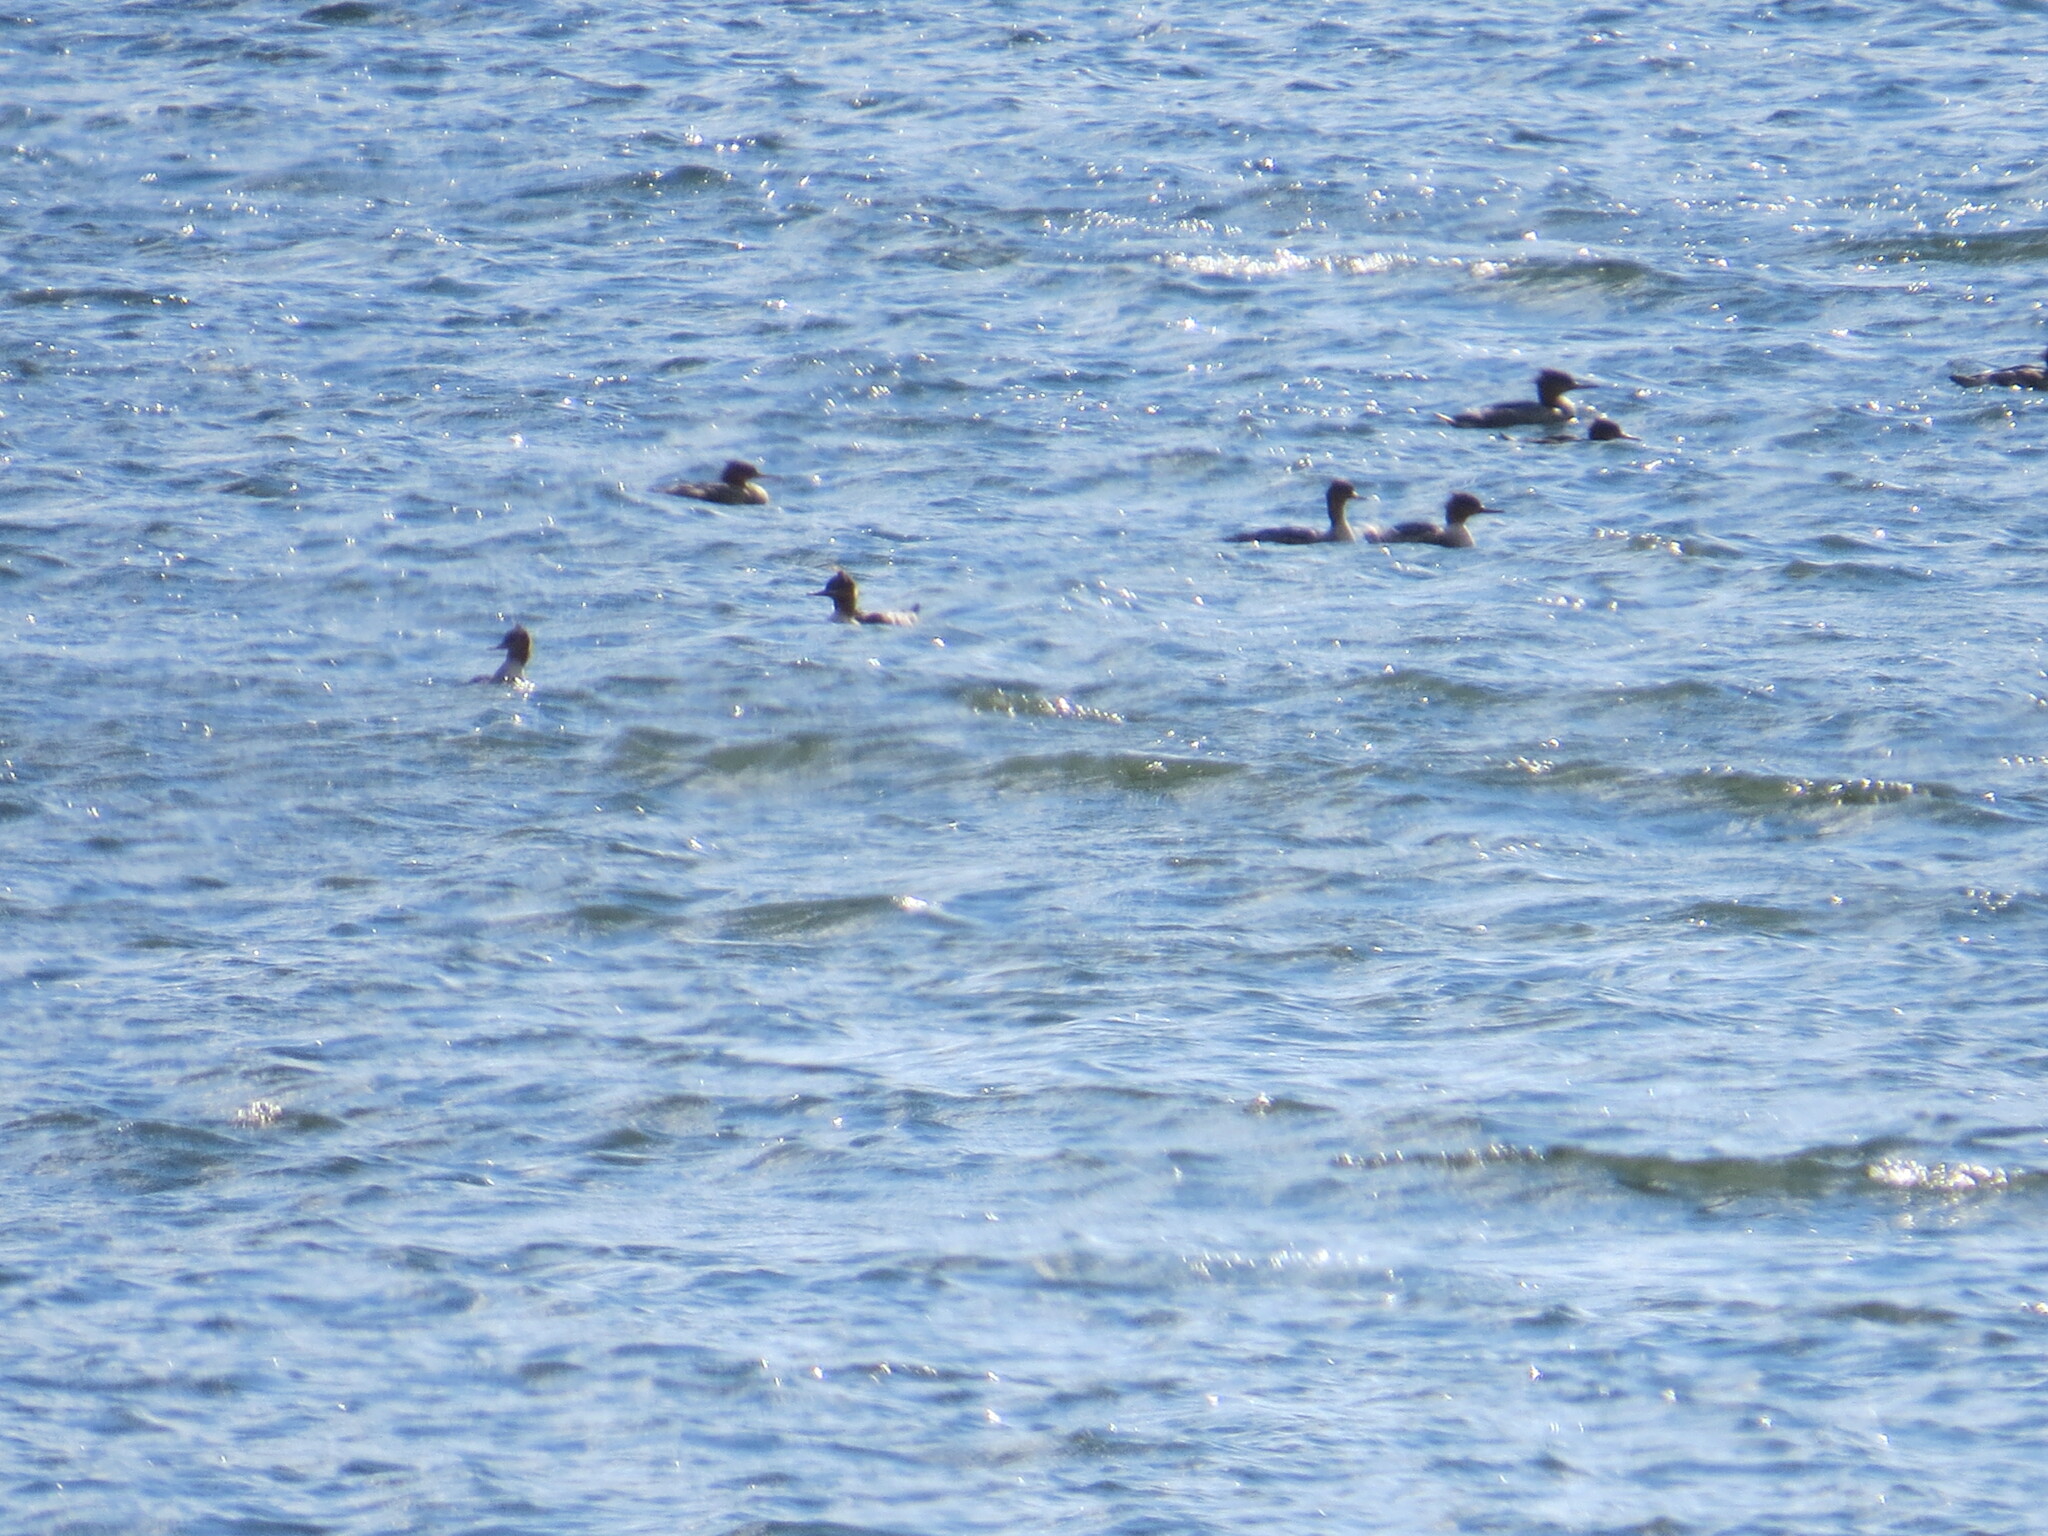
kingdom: Animalia
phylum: Chordata
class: Aves
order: Anseriformes
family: Anatidae
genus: Mergus
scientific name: Mergus serrator
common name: Red-breasted merganser
